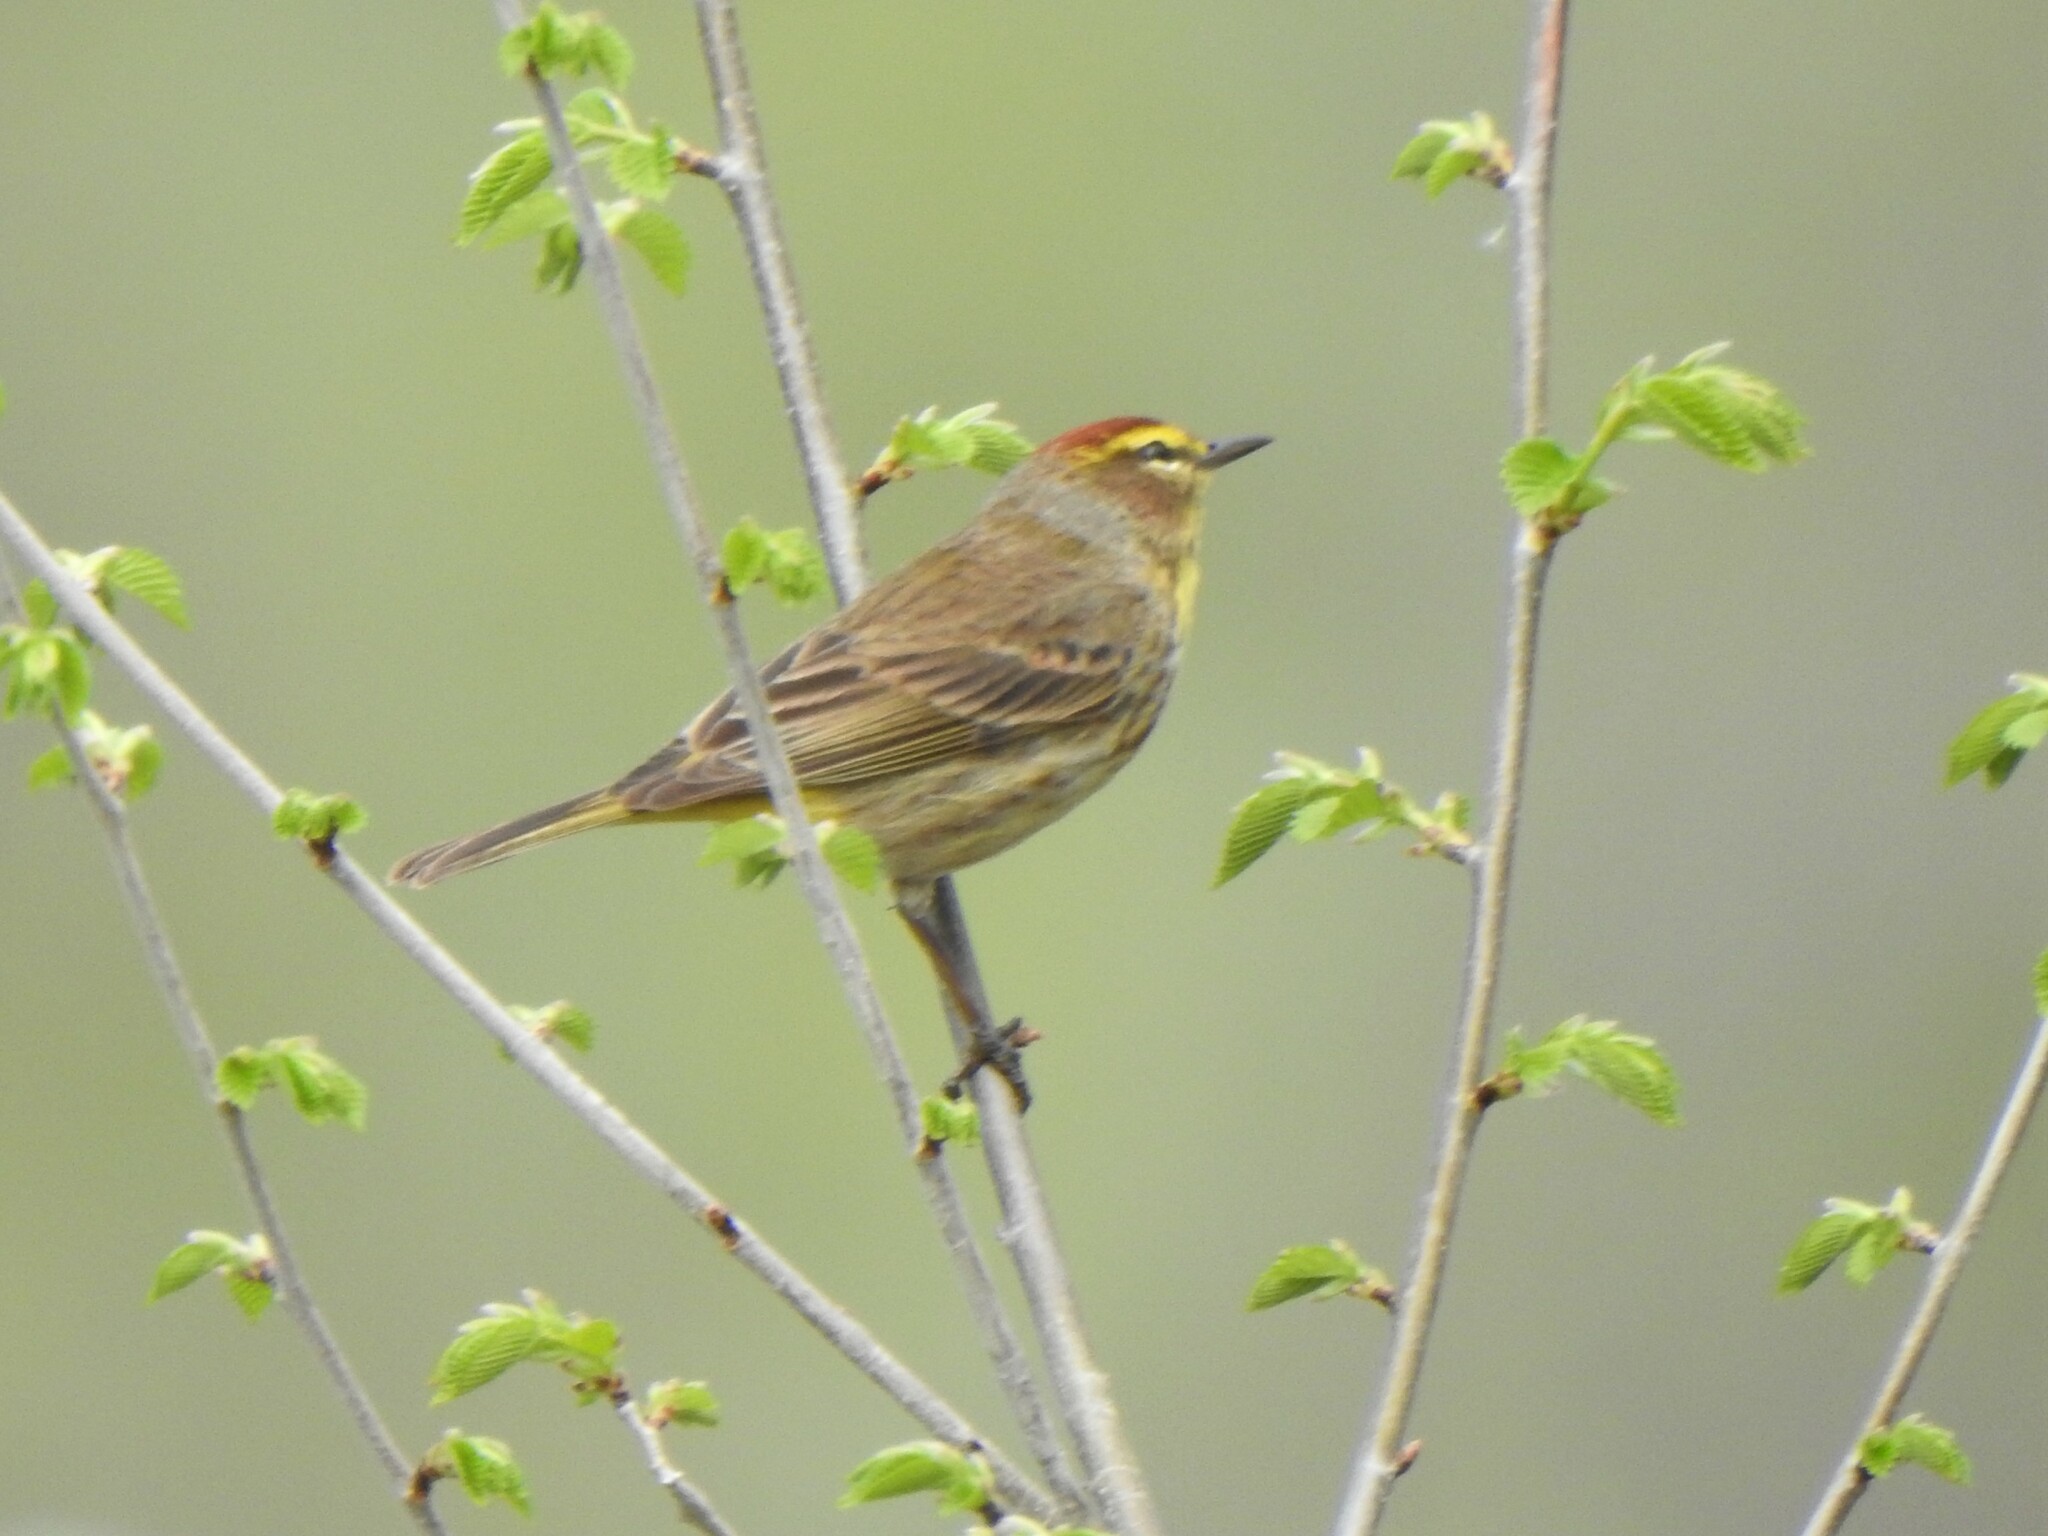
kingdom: Animalia
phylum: Chordata
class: Aves
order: Passeriformes
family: Parulidae
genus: Setophaga
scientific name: Setophaga palmarum
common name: Palm warbler
